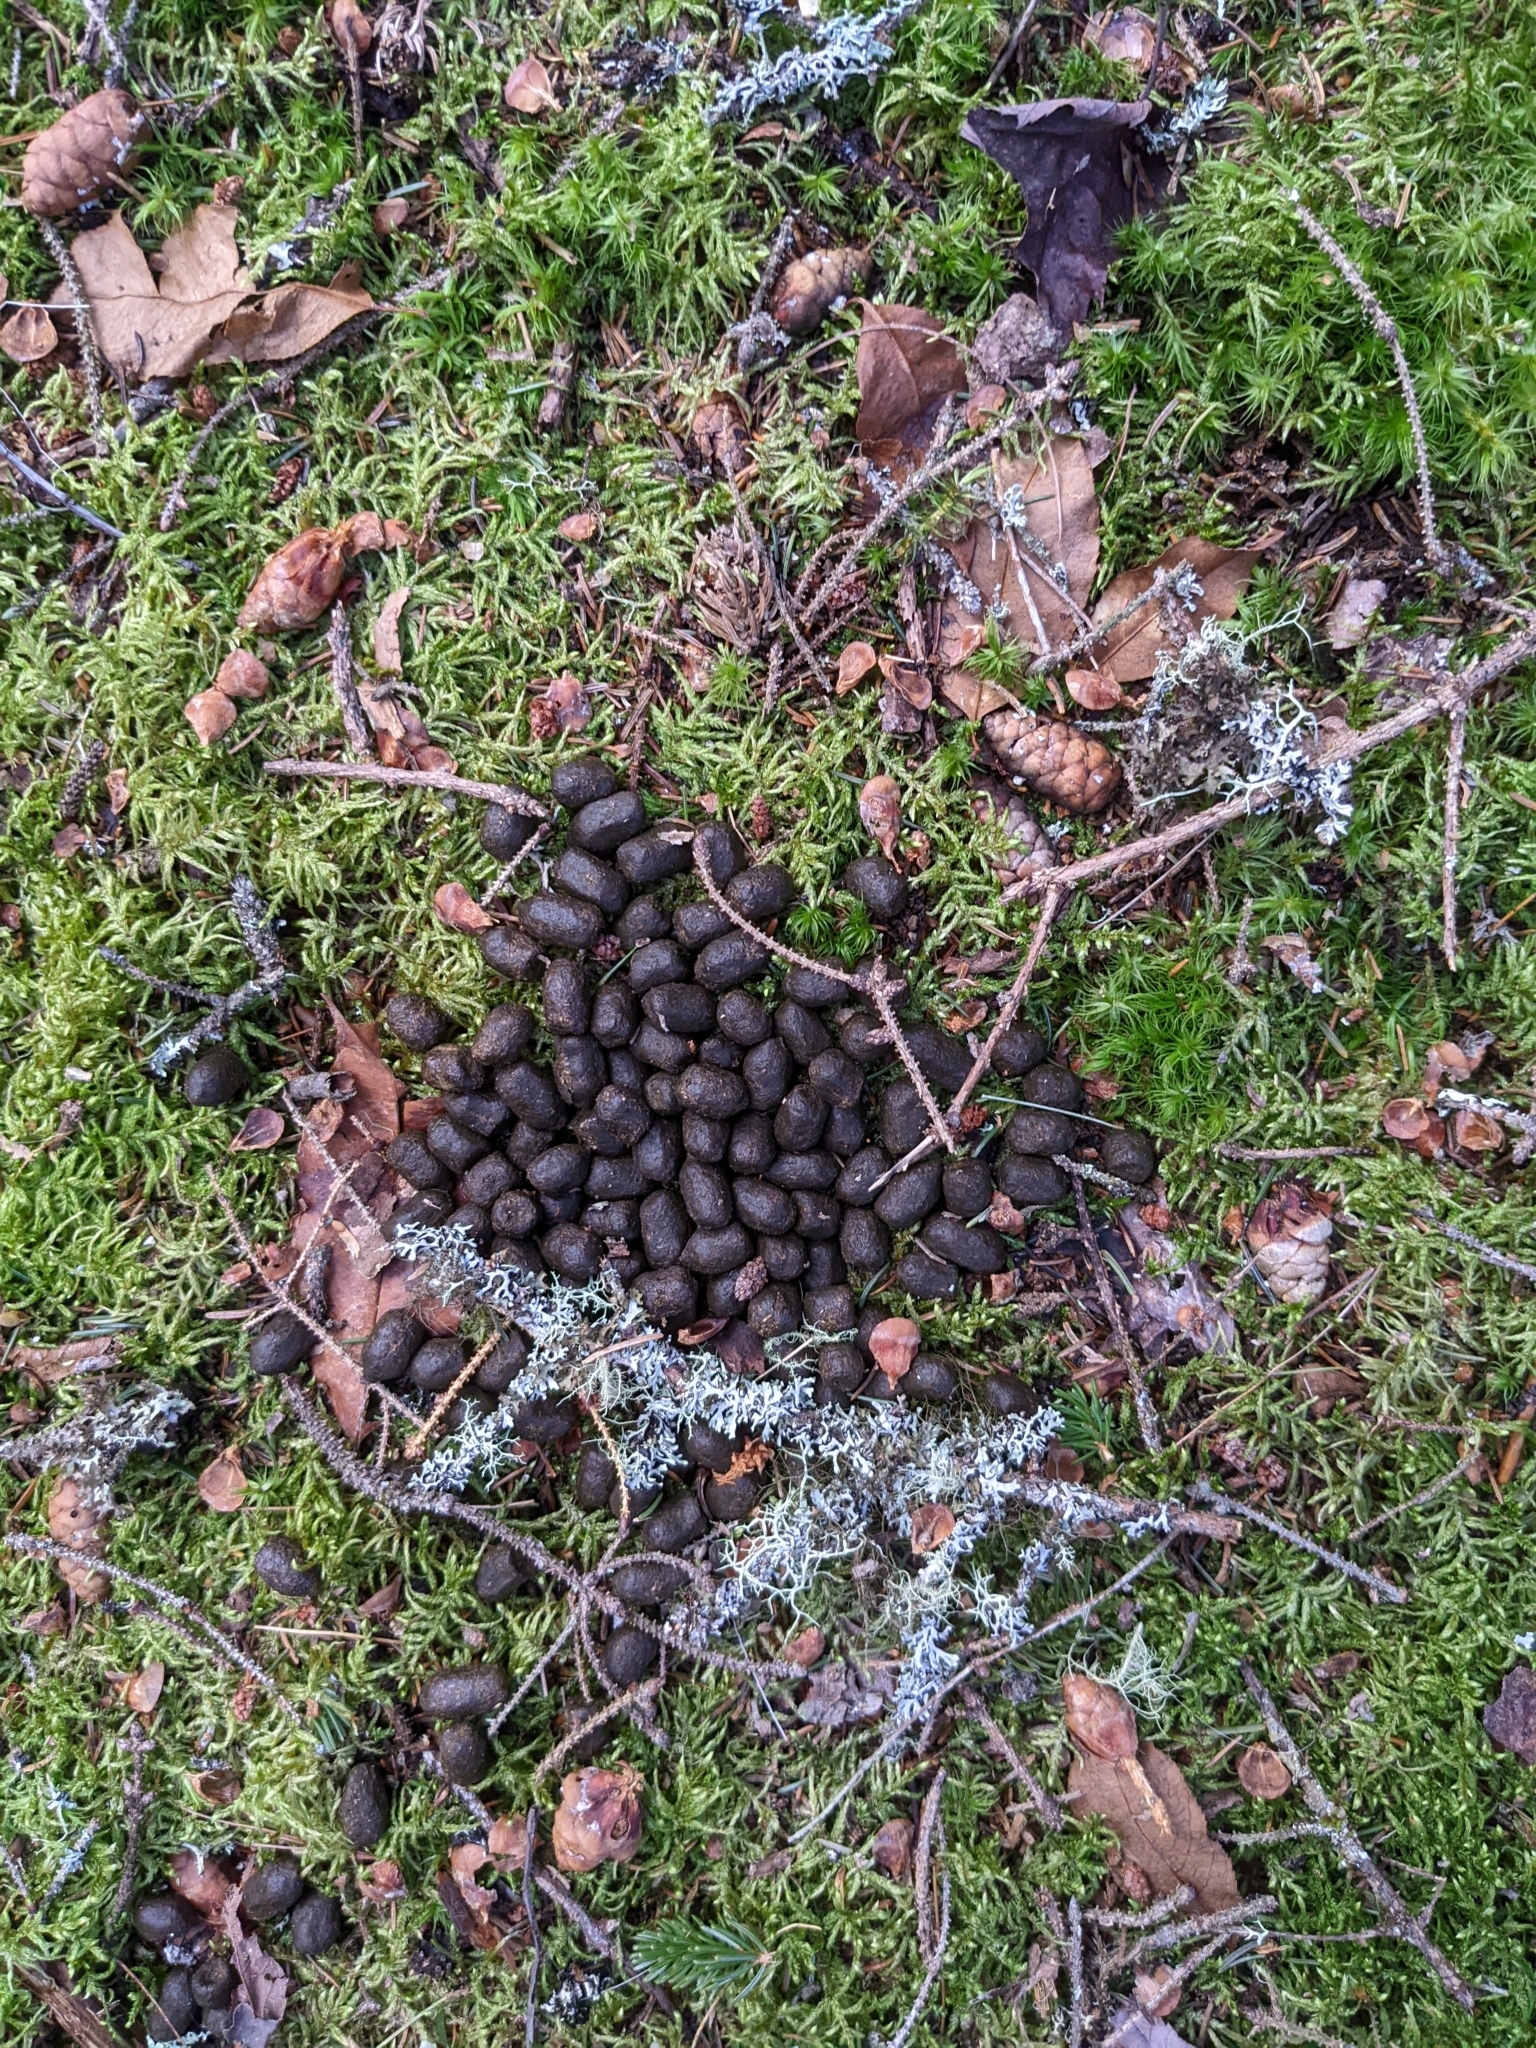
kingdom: Animalia
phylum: Chordata
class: Mammalia
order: Artiodactyla
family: Cervidae
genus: Odocoileus
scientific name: Odocoileus virginianus
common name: White-tailed deer
